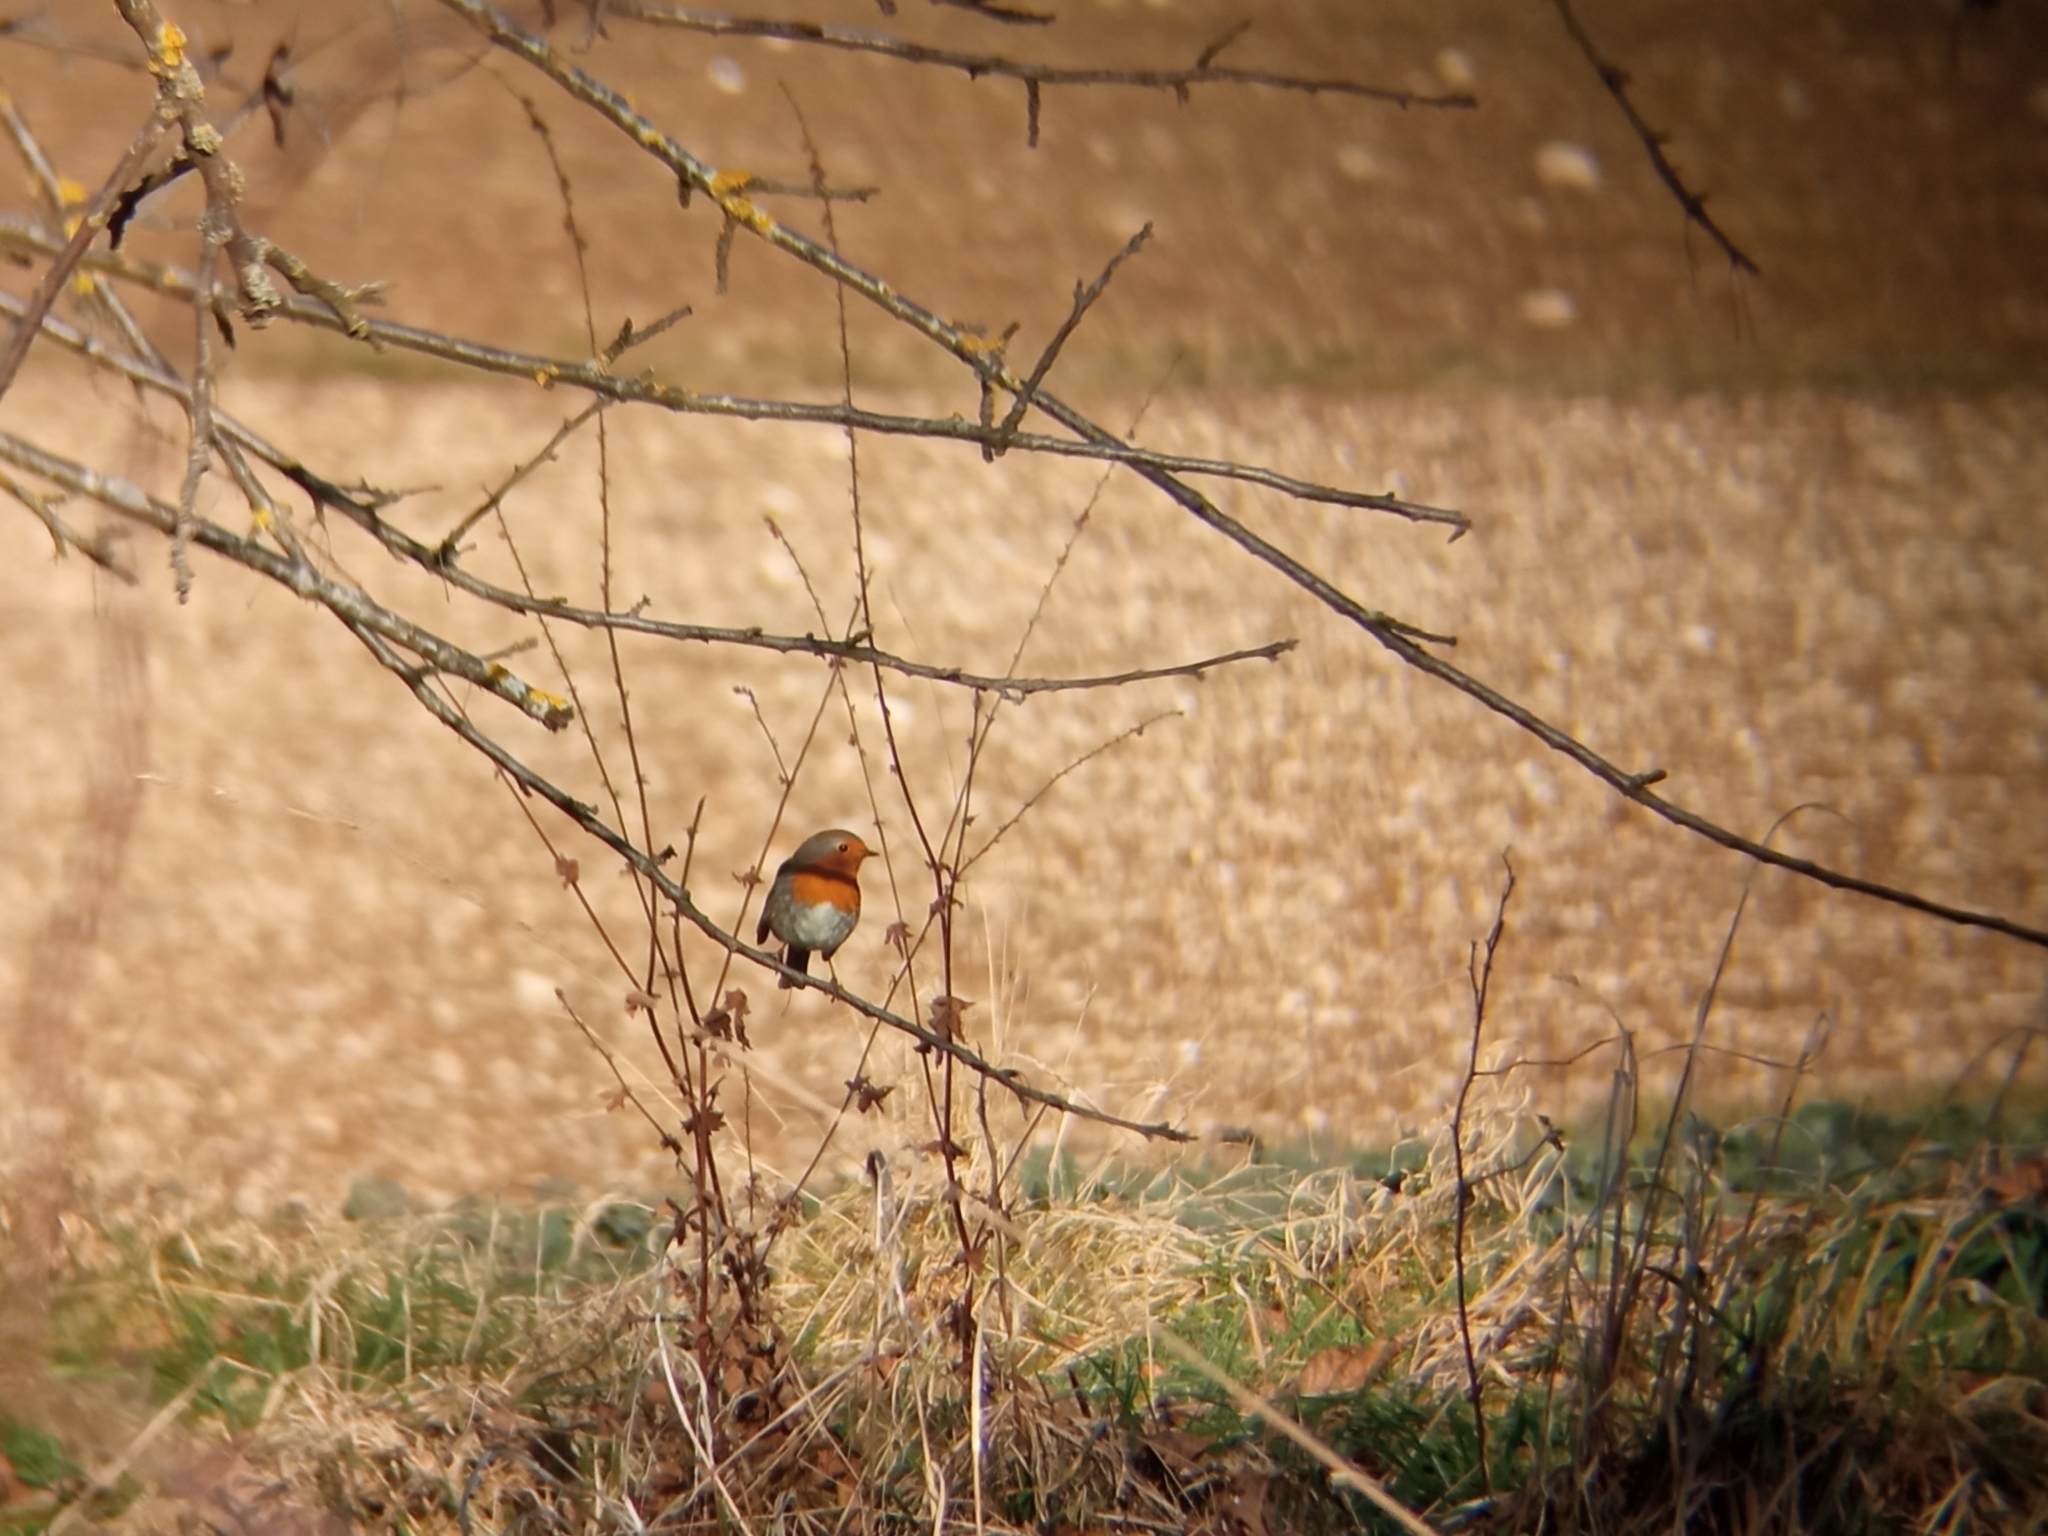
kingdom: Animalia
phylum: Chordata
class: Aves
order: Passeriformes
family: Muscicapidae
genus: Erithacus
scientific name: Erithacus rubecula
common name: European robin
